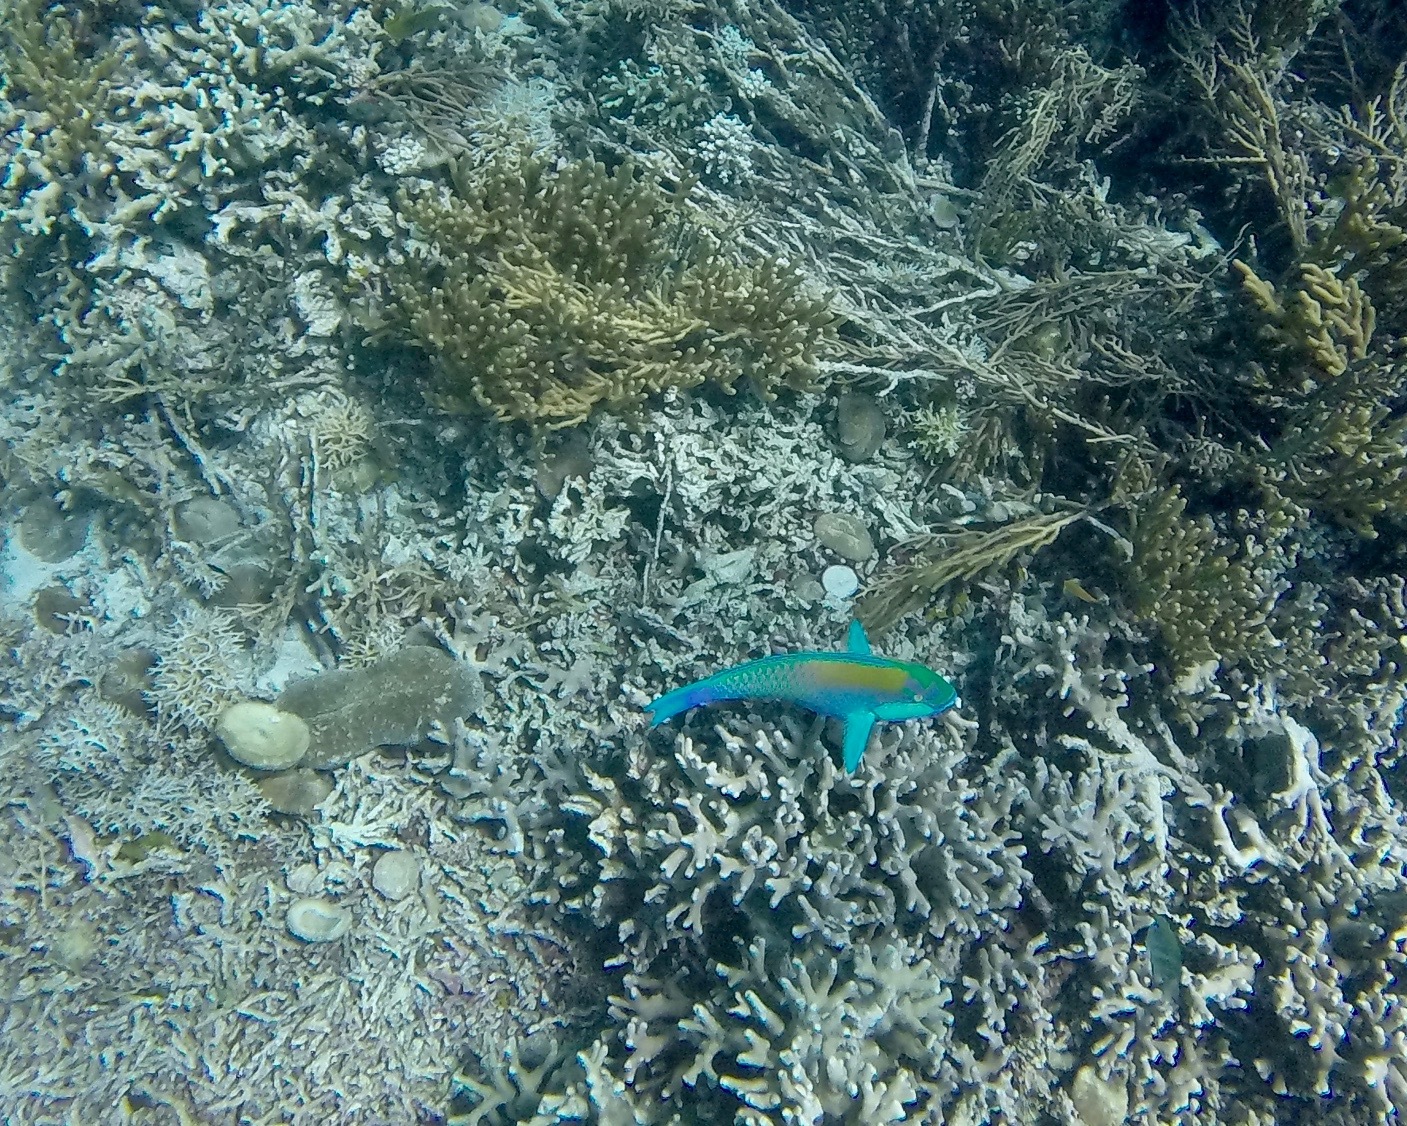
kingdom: Animalia
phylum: Chordata
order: Perciformes
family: Scaridae
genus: Chlorurus
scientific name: Chlorurus bleekeri
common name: Bleeker's parrotfish
